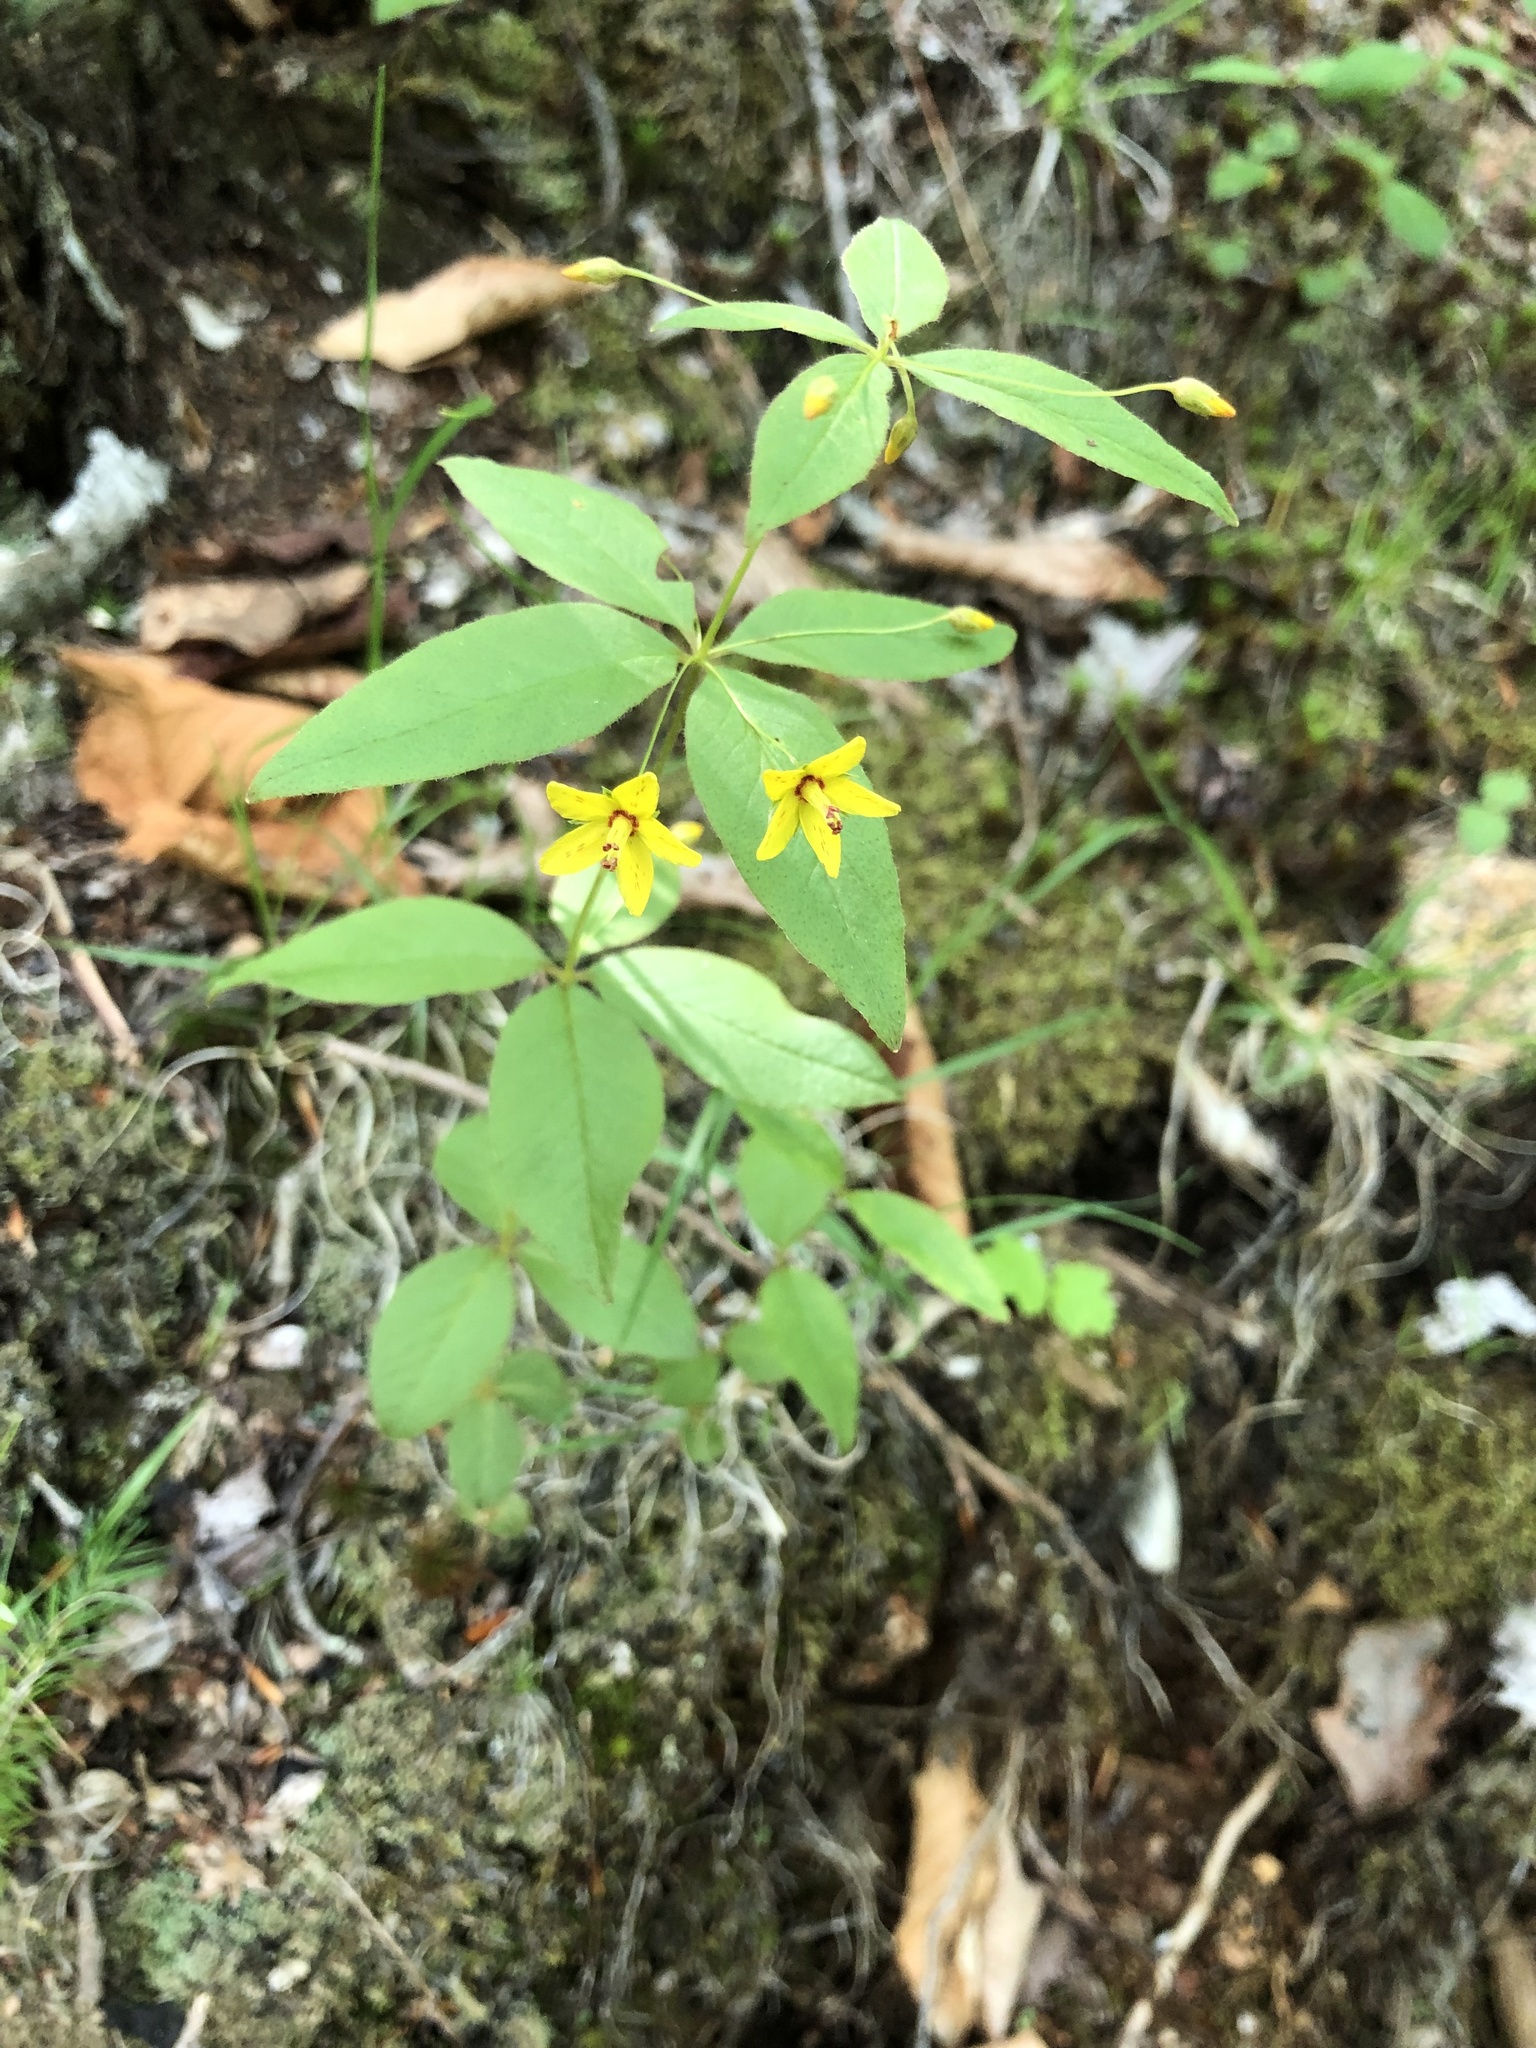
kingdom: Plantae
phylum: Tracheophyta
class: Magnoliopsida
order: Ericales
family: Primulaceae
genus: Lysimachia
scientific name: Lysimachia quadrifolia
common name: Whorled loosestrife
